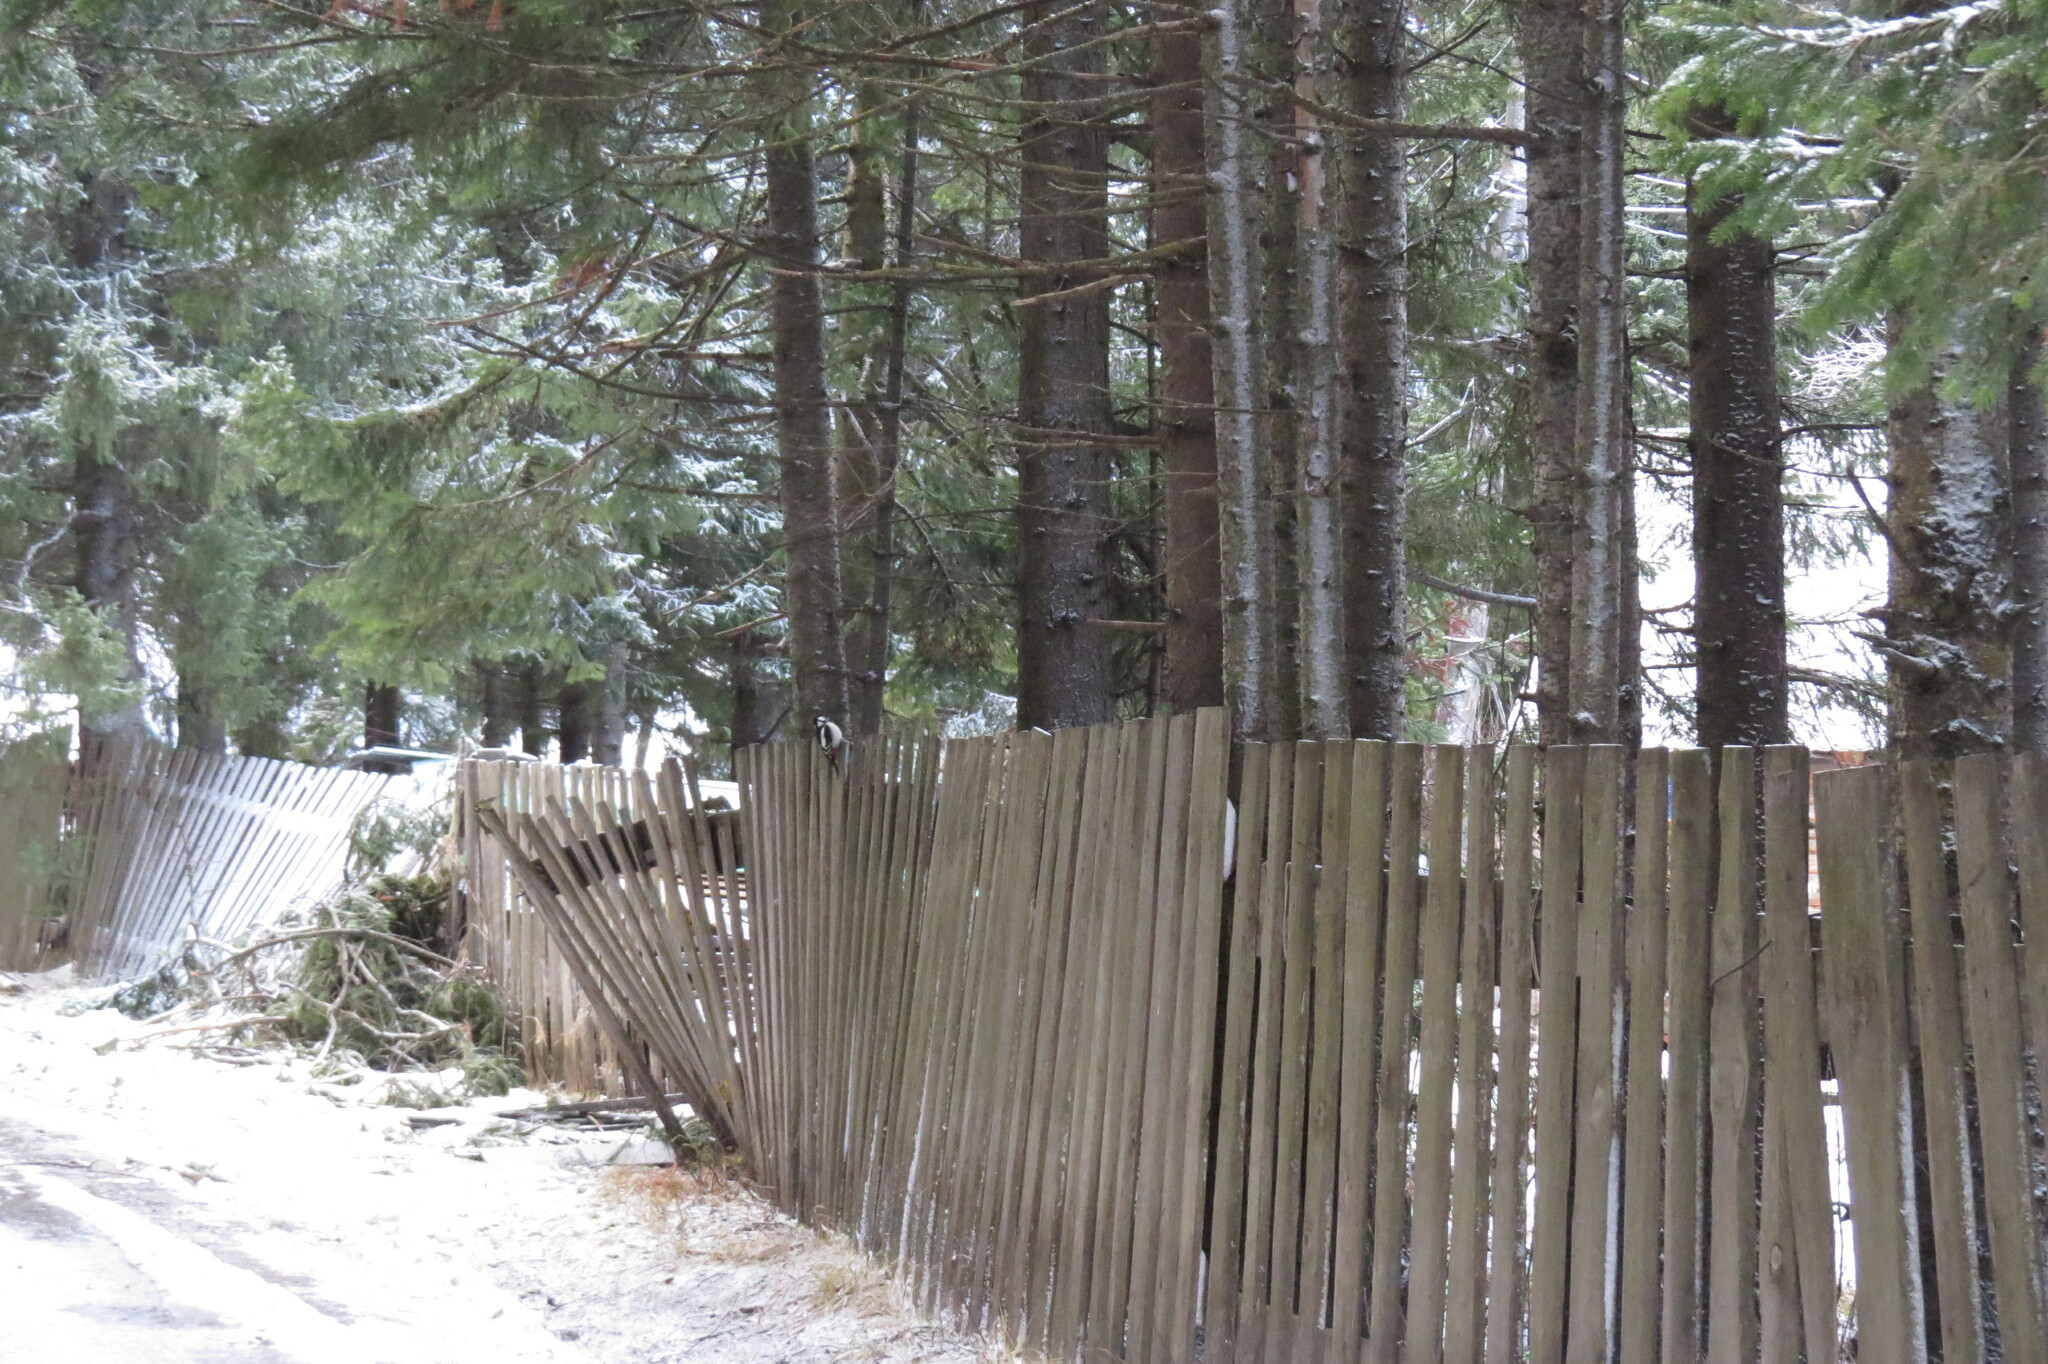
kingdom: Animalia
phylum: Chordata
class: Aves
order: Piciformes
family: Picidae
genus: Dendrocopos
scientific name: Dendrocopos major
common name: Great spotted woodpecker
